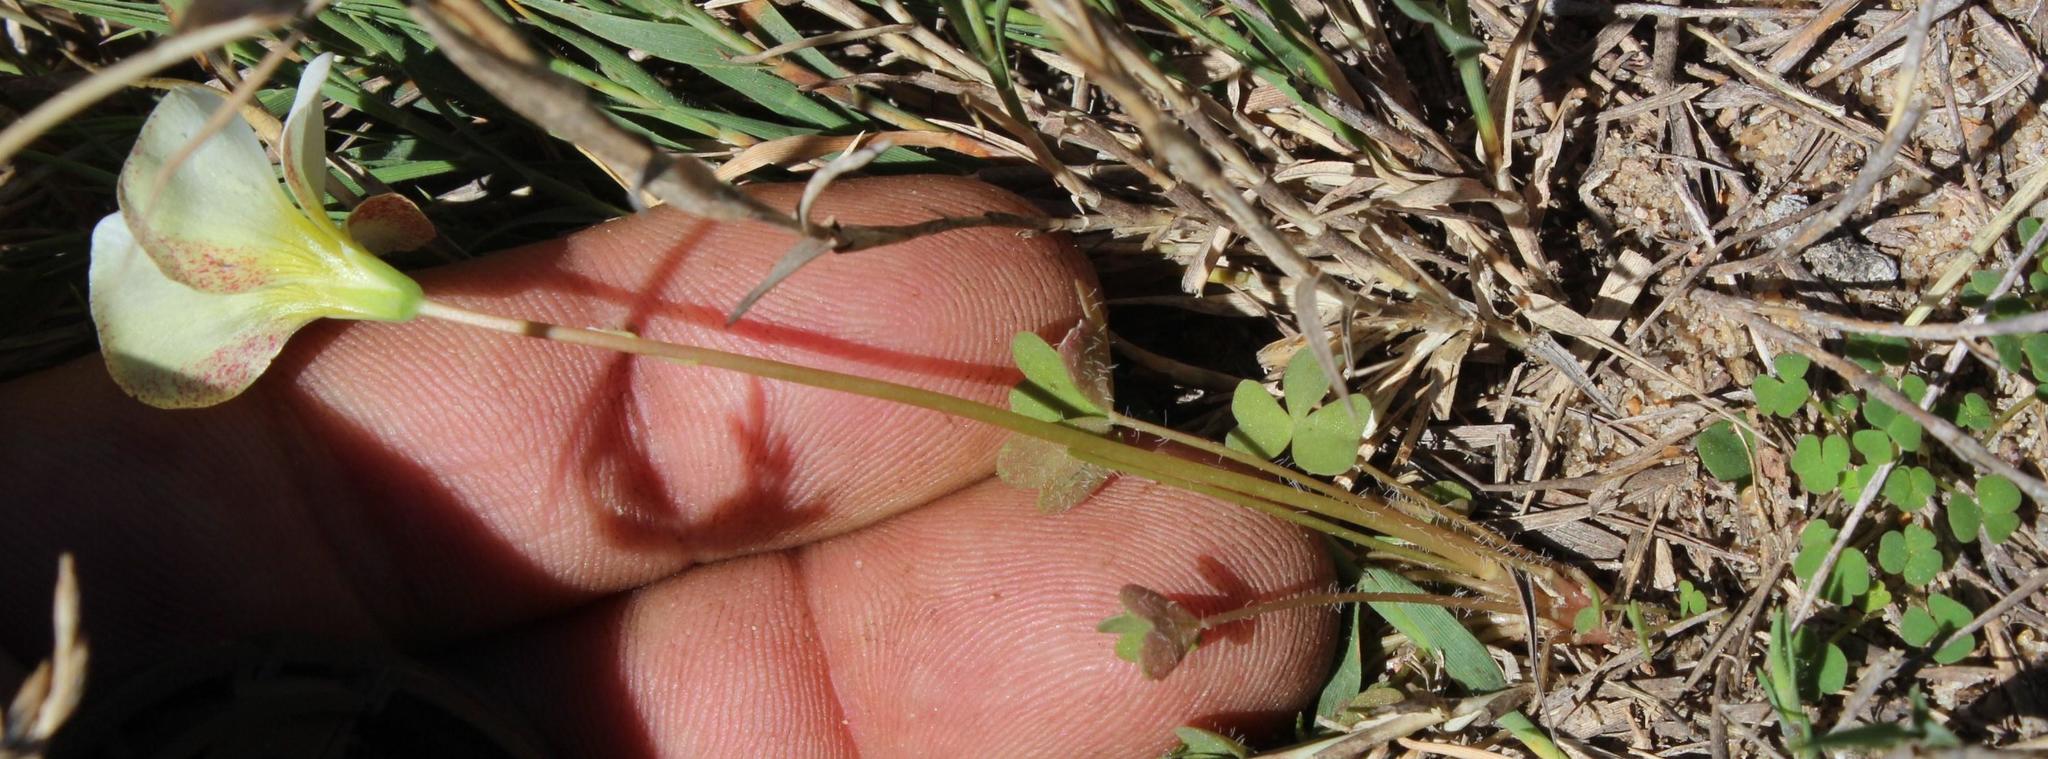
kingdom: Plantae
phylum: Tracheophyta
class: Magnoliopsida
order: Oxalidales
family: Oxalidaceae
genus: Oxalis
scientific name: Oxalis annae
